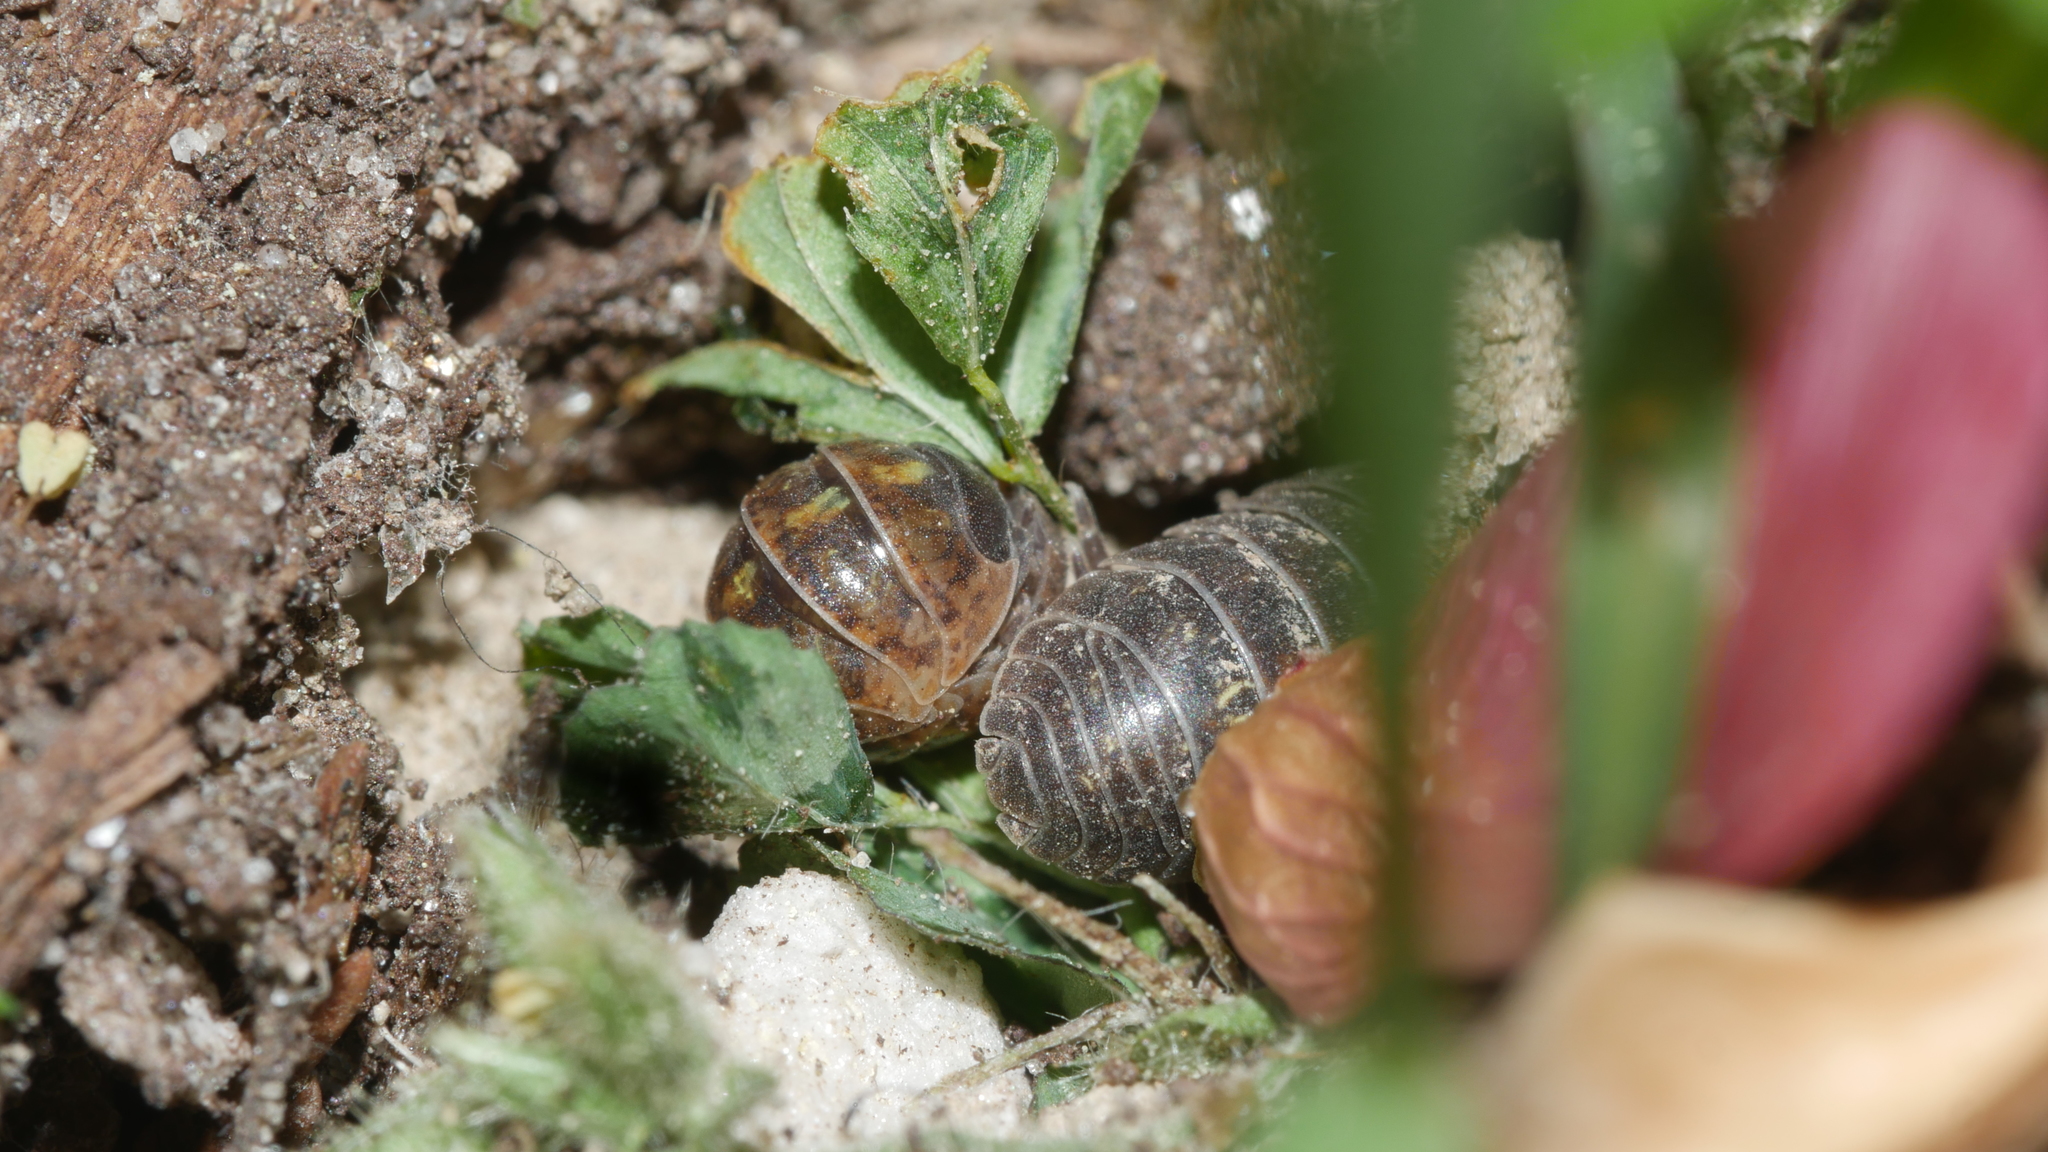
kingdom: Animalia
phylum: Arthropoda
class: Malacostraca
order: Isopoda
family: Armadillidiidae
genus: Armadillidium
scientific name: Armadillidium vulgare
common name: Common pill woodlouse
